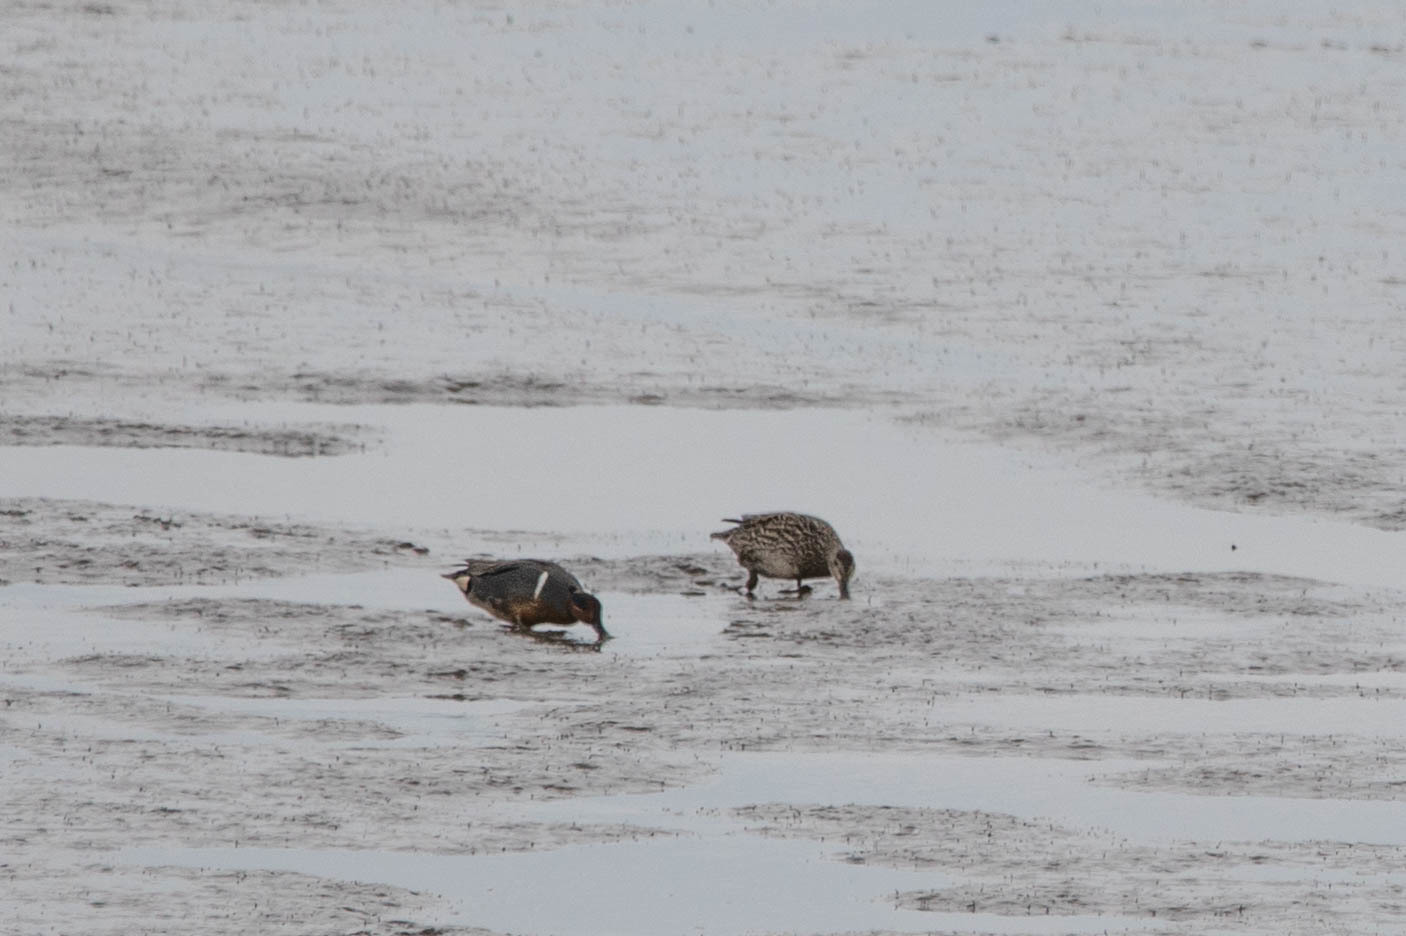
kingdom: Animalia
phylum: Chordata
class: Aves
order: Anseriformes
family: Anatidae
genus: Anas
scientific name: Anas carolinensis
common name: Green-winged teal
